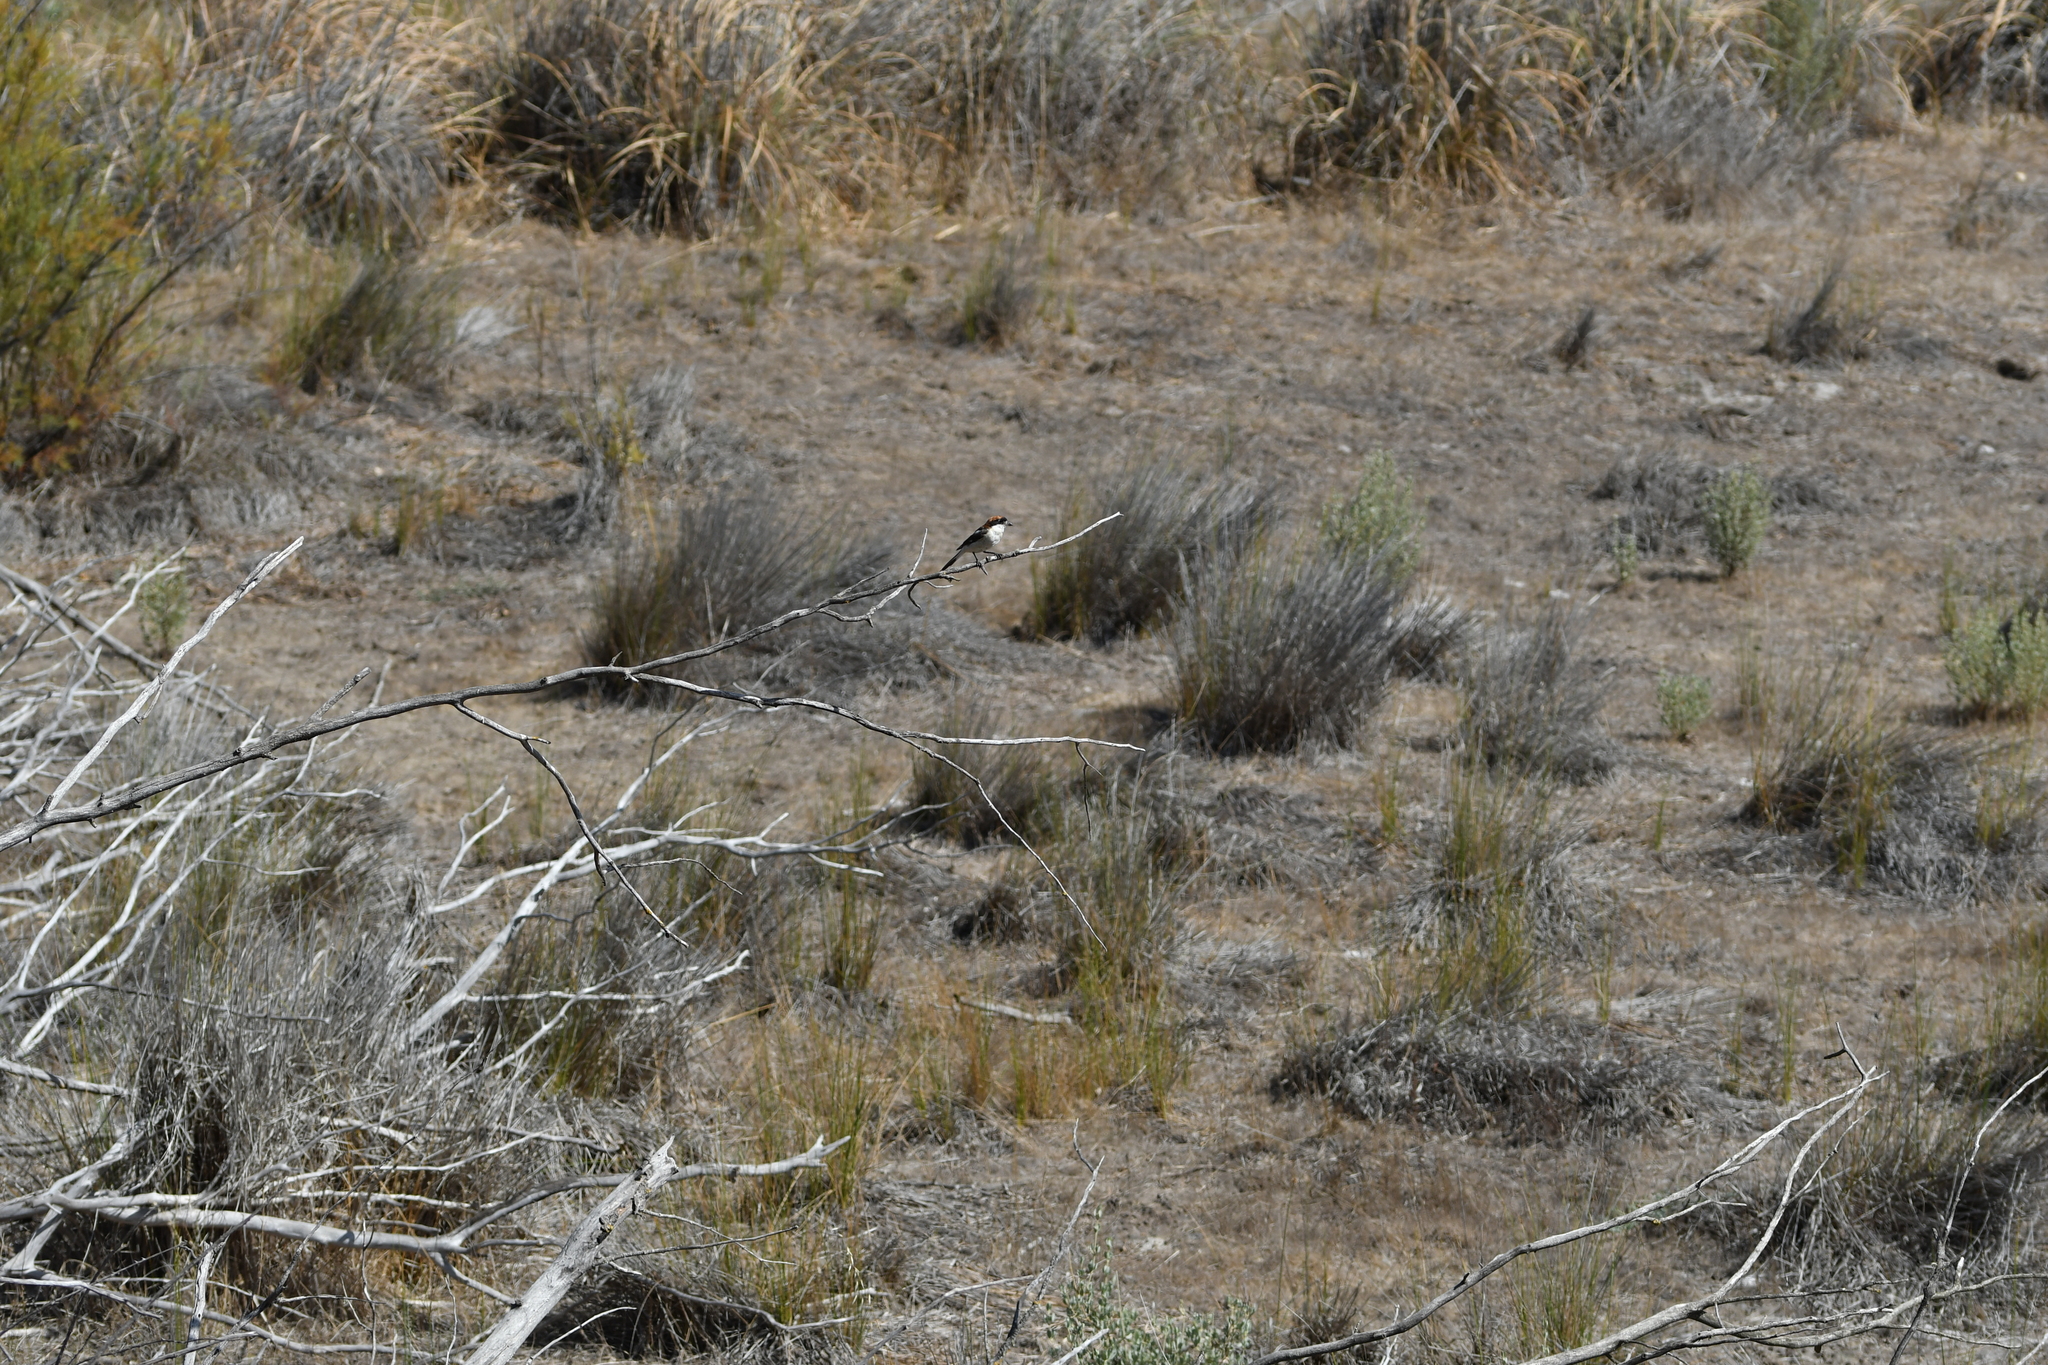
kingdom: Animalia
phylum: Chordata
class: Aves
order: Passeriformes
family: Laniidae
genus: Lanius
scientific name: Lanius senator
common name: Woodchat shrike
